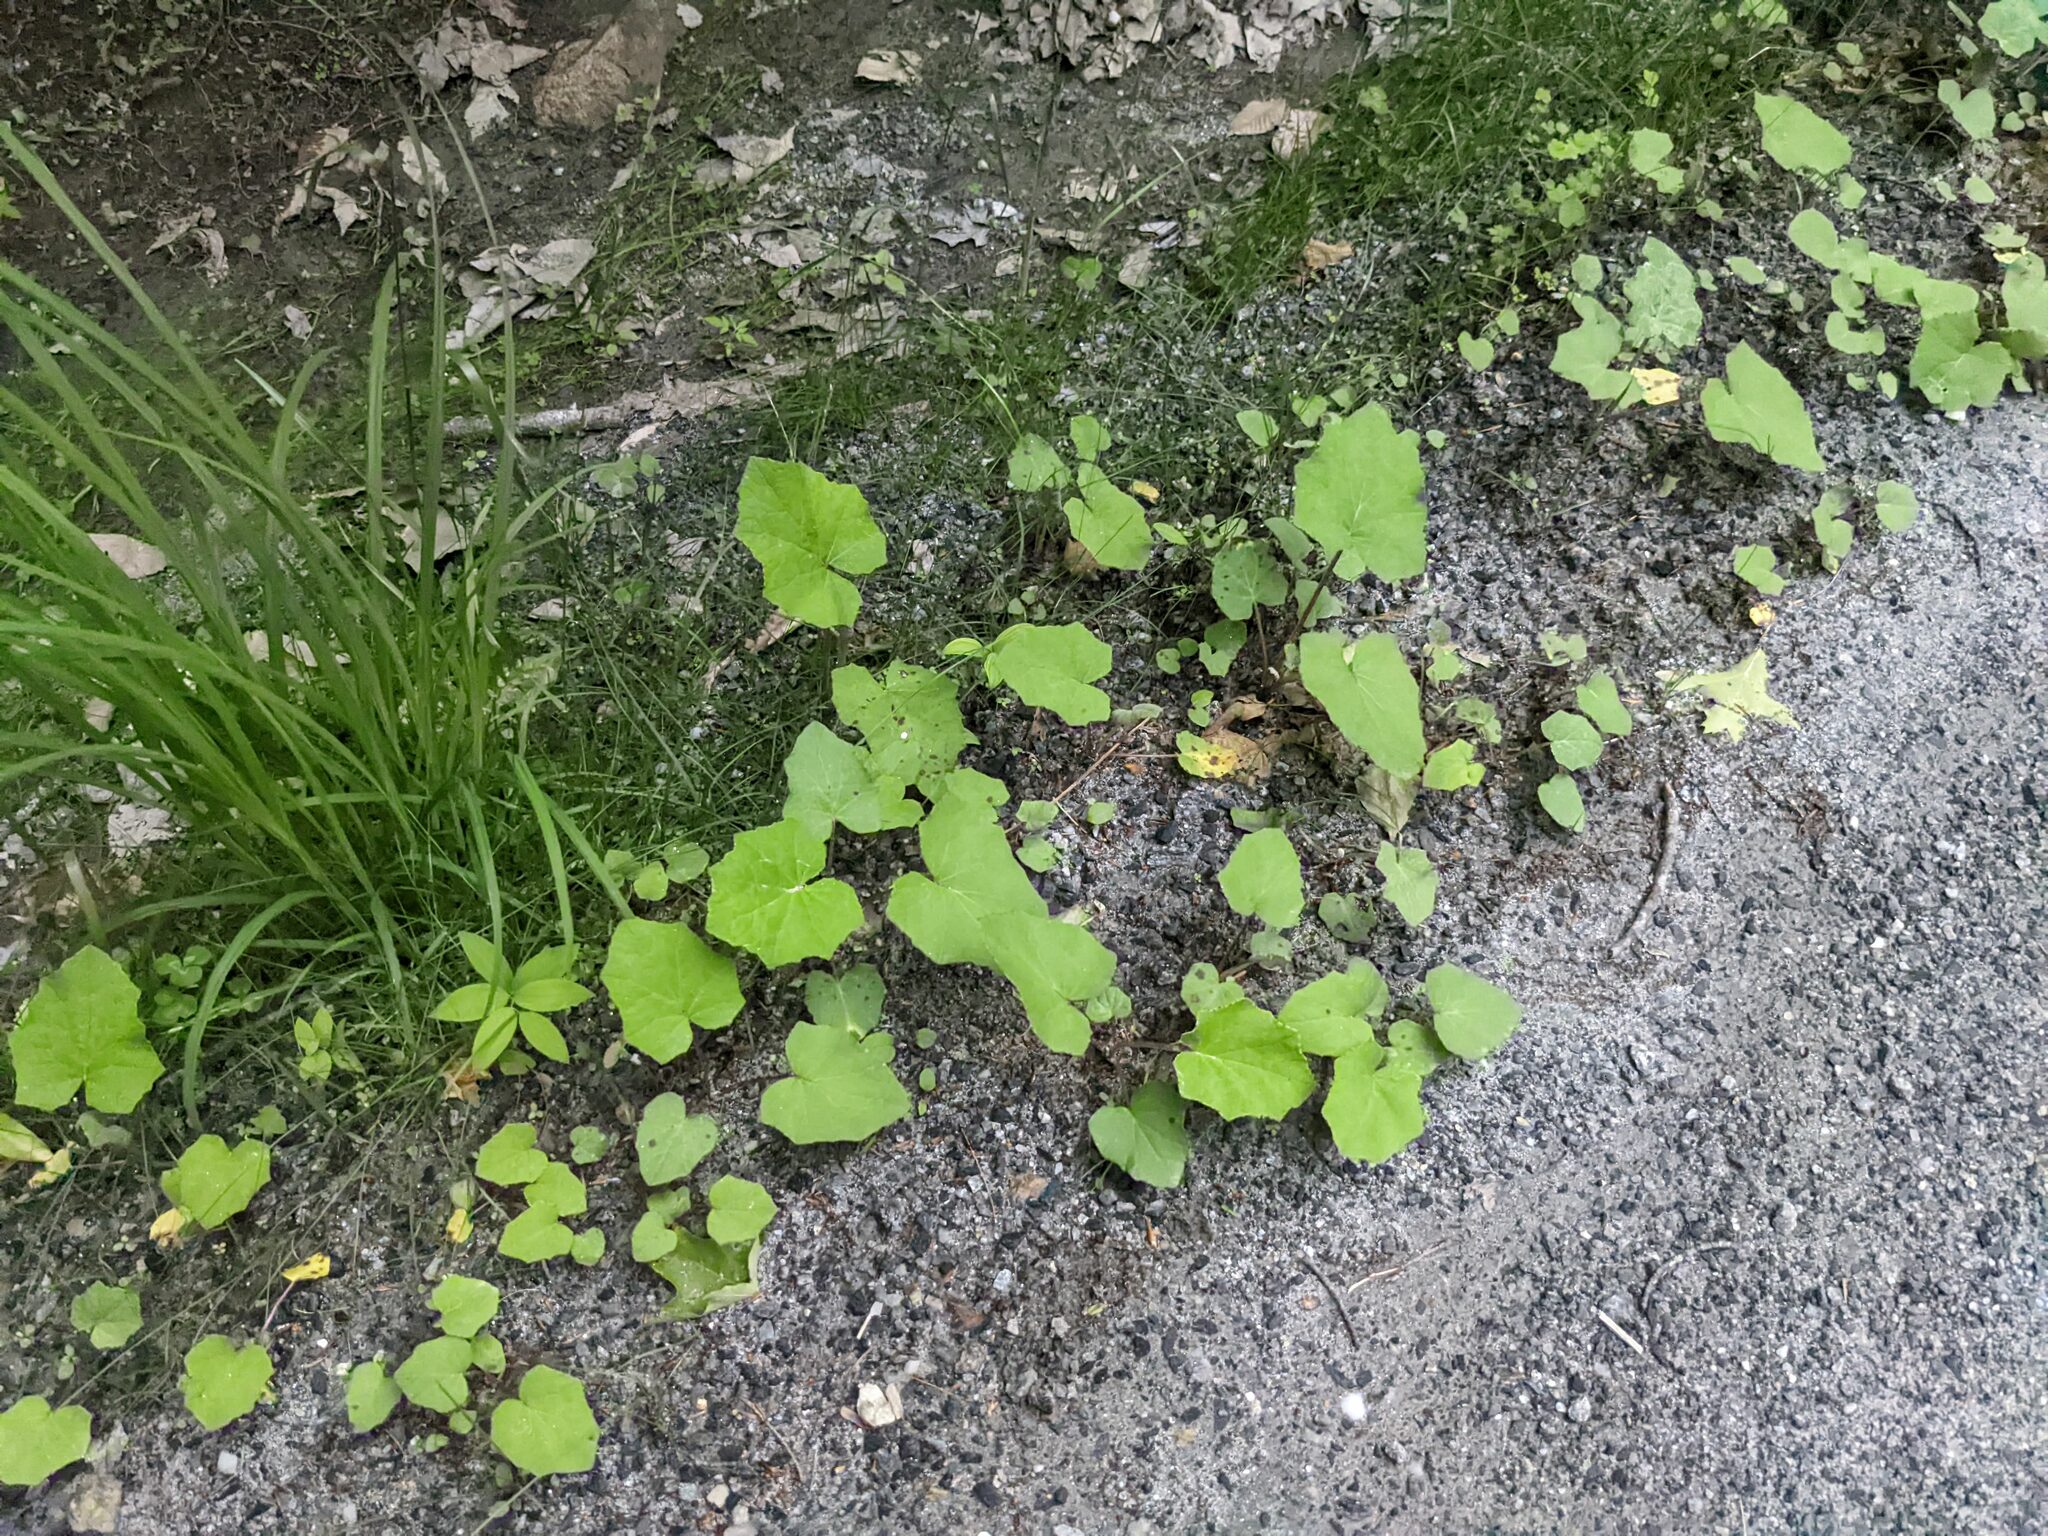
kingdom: Plantae
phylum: Tracheophyta
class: Magnoliopsida
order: Asterales
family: Asteraceae
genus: Tussilago
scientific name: Tussilago farfara
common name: Coltsfoot
